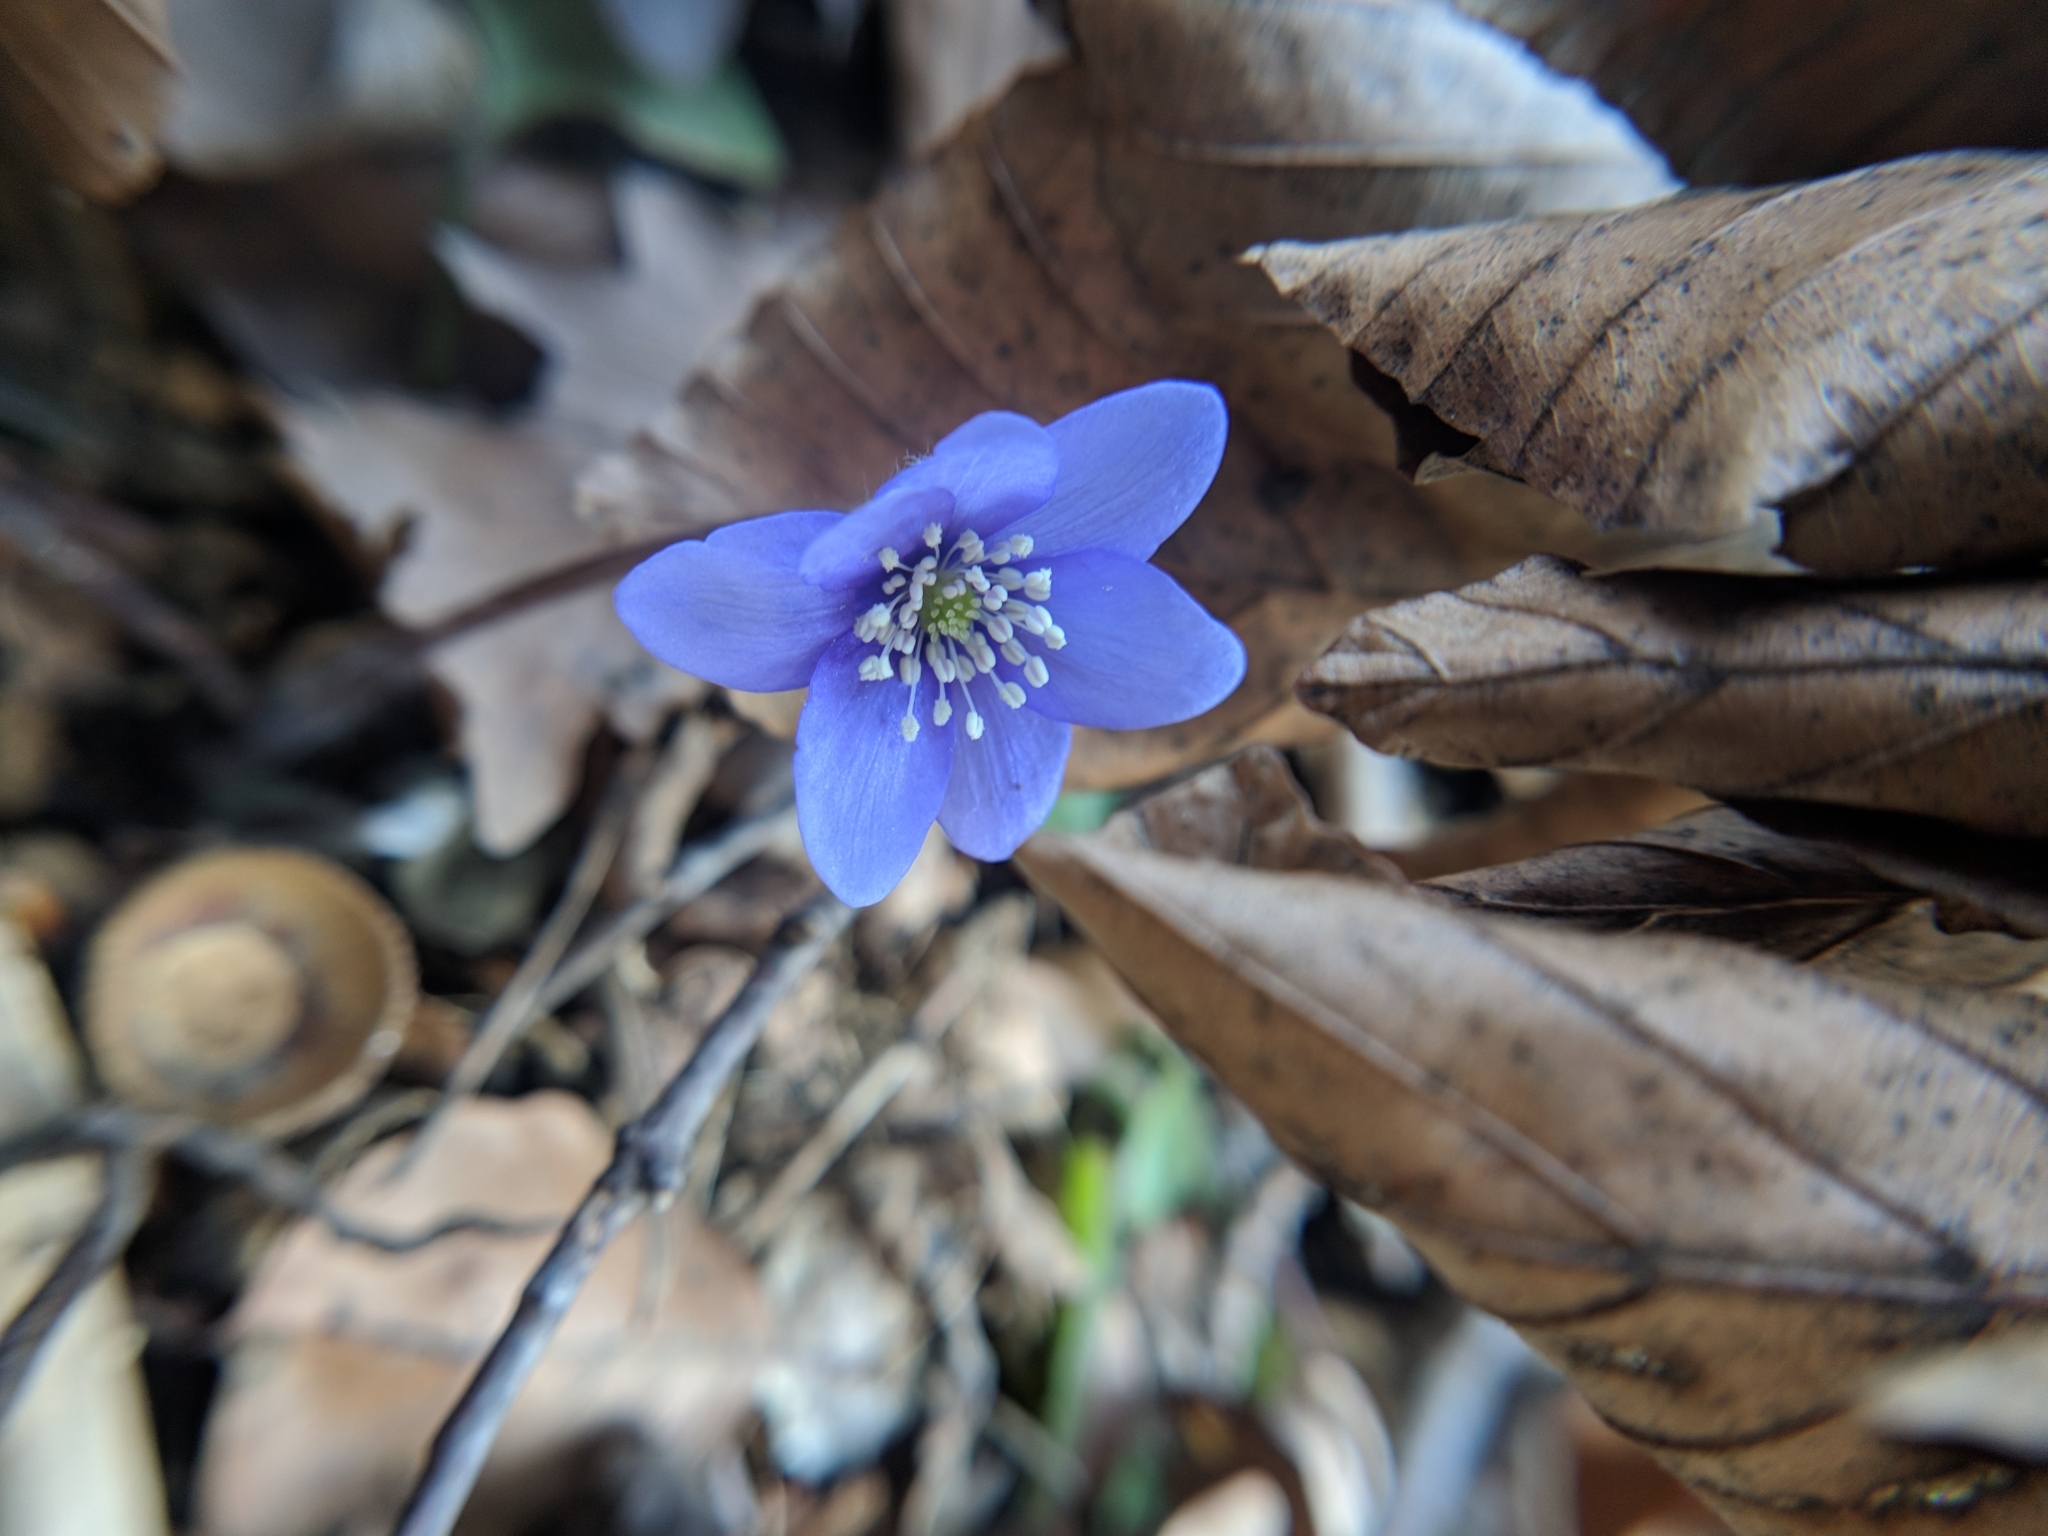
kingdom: Plantae
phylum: Tracheophyta
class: Magnoliopsida
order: Ranunculales
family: Ranunculaceae
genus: Hepatica
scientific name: Hepatica nobilis
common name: Liverleaf
